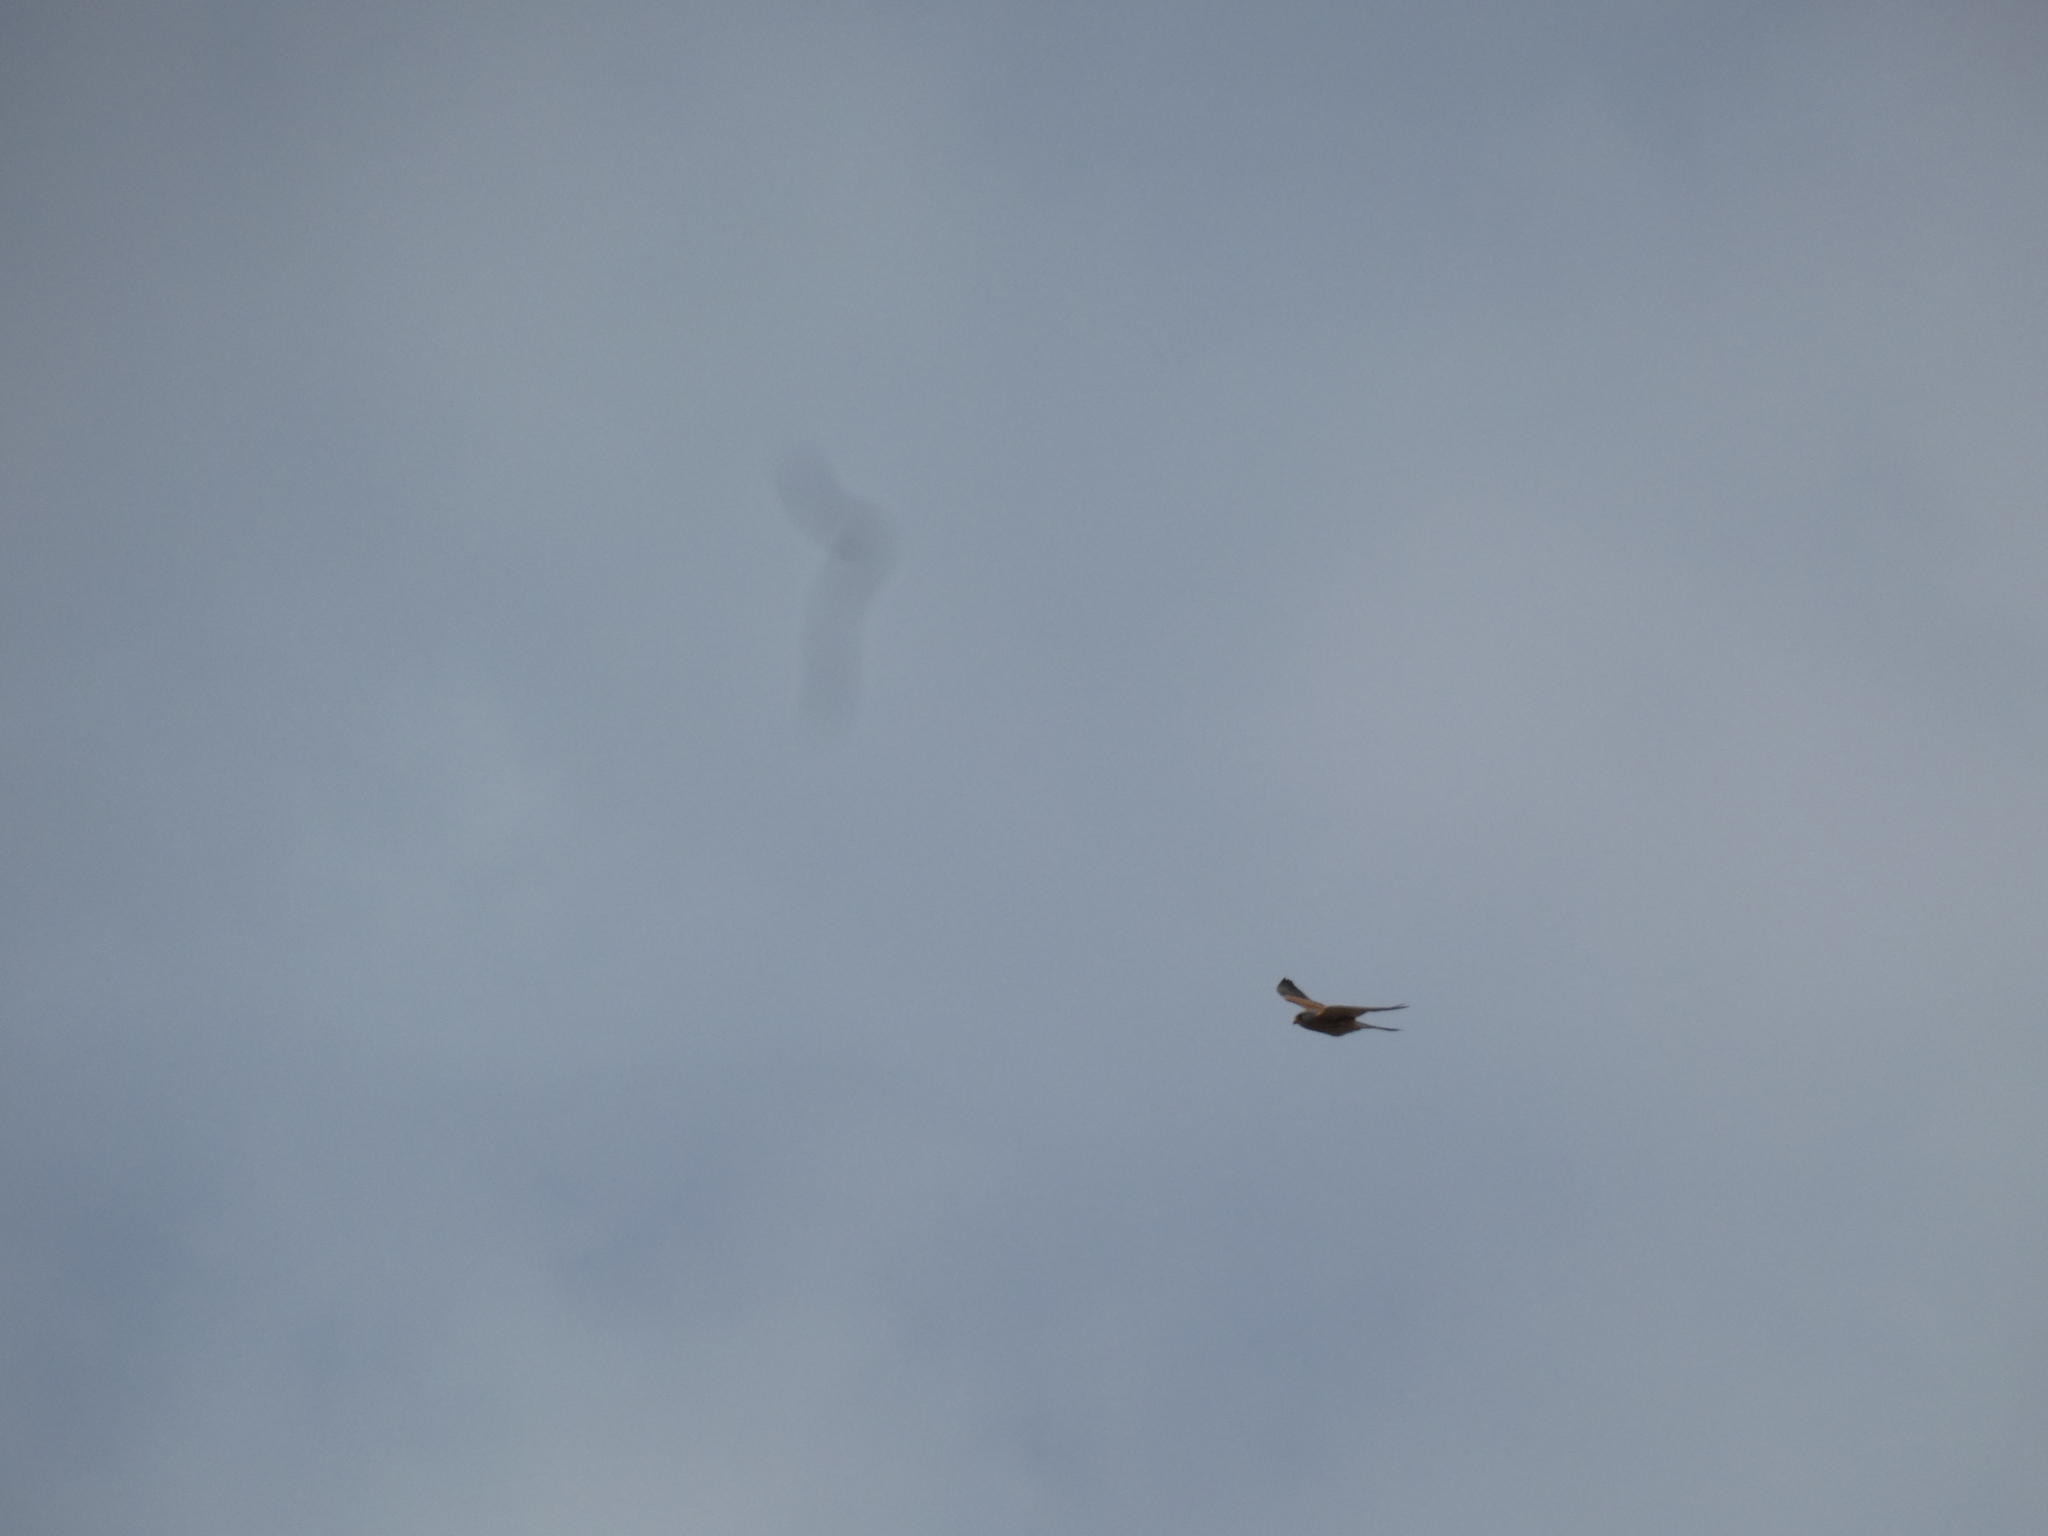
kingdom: Animalia
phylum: Chordata
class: Aves
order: Falconiformes
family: Falconidae
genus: Falco
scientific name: Falco naumanni
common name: Lesser kestrel
